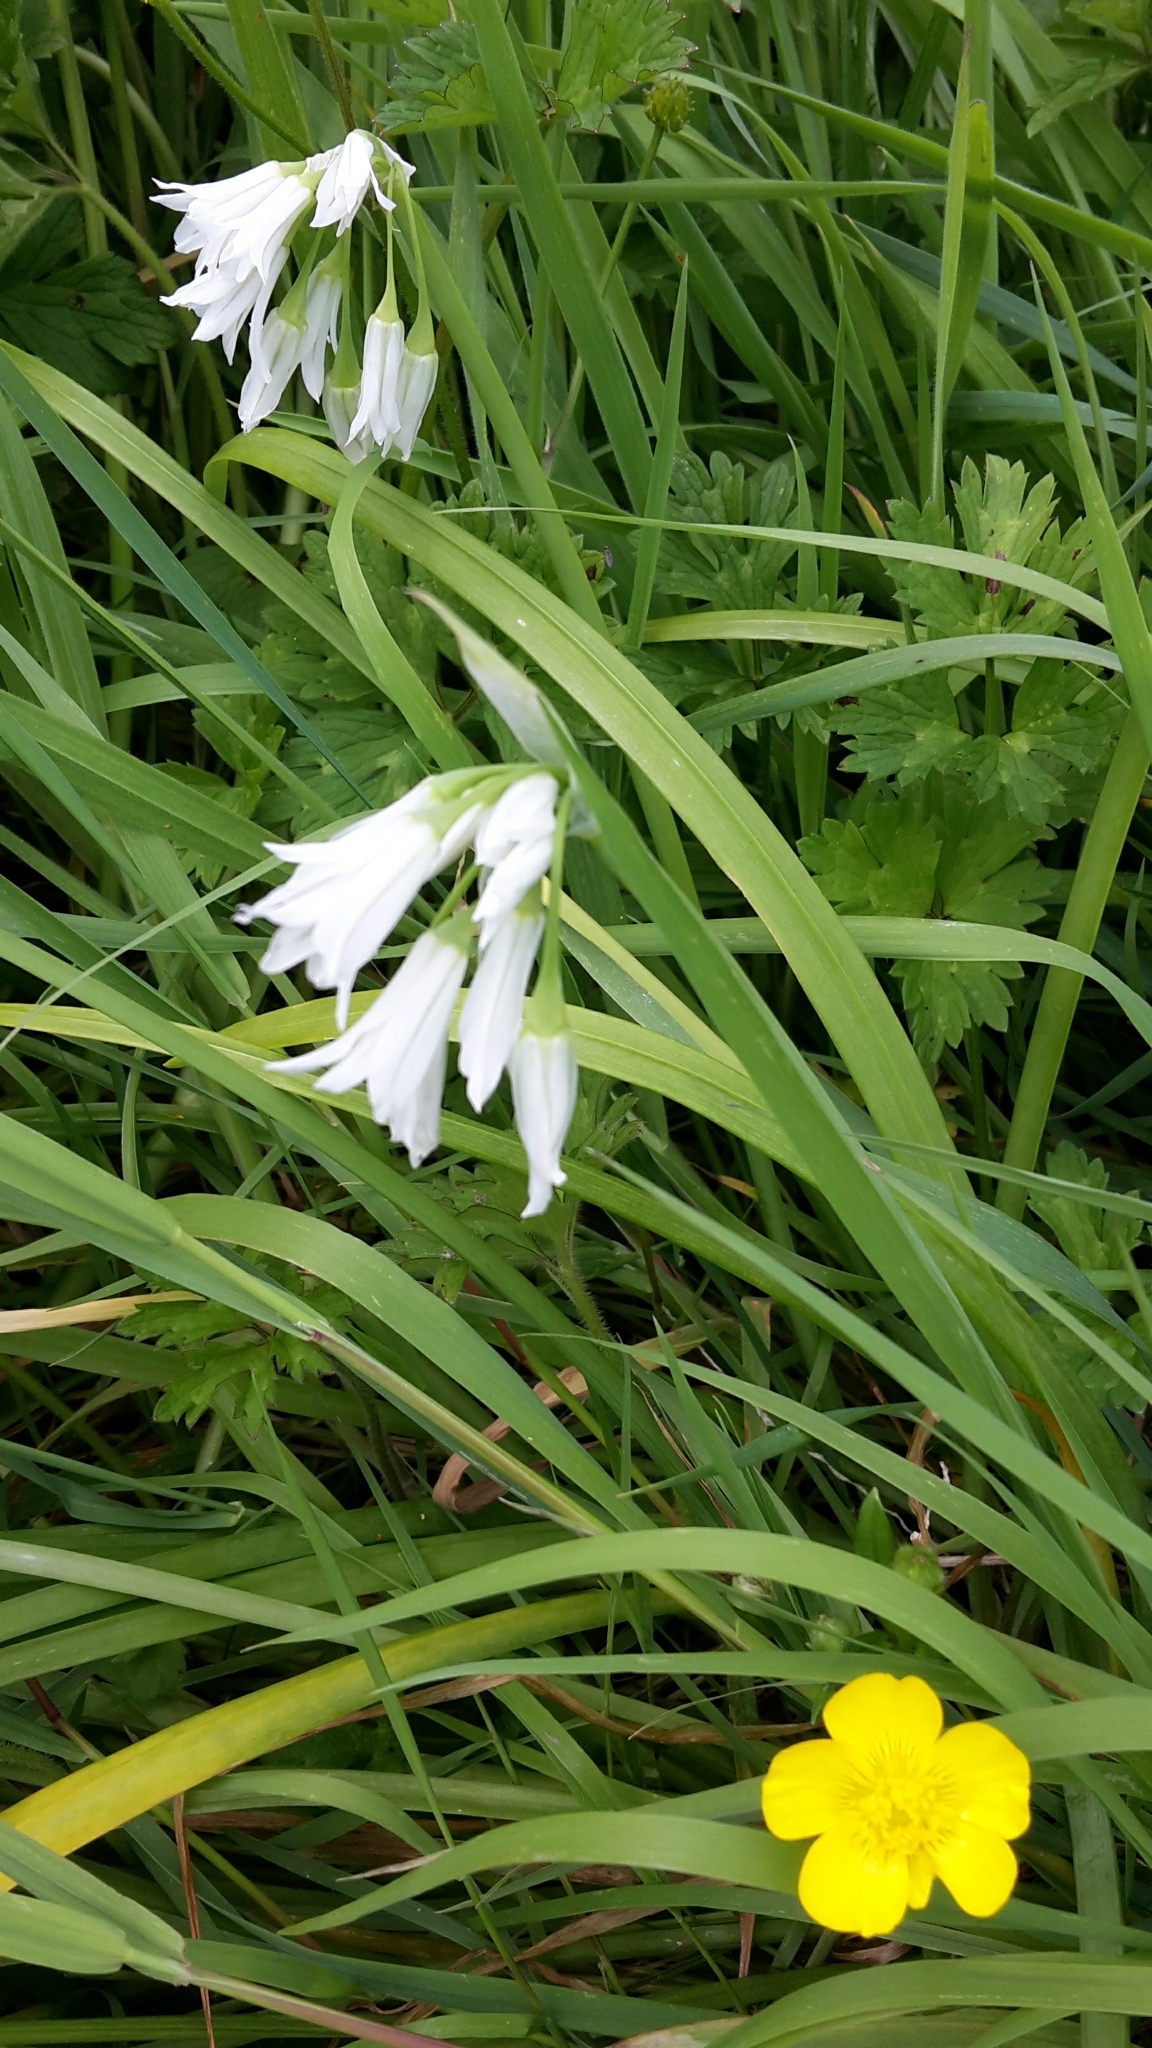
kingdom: Plantae
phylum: Tracheophyta
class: Liliopsida
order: Asparagales
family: Amaryllidaceae
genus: Allium
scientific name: Allium triquetrum
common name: Three-cornered garlic
